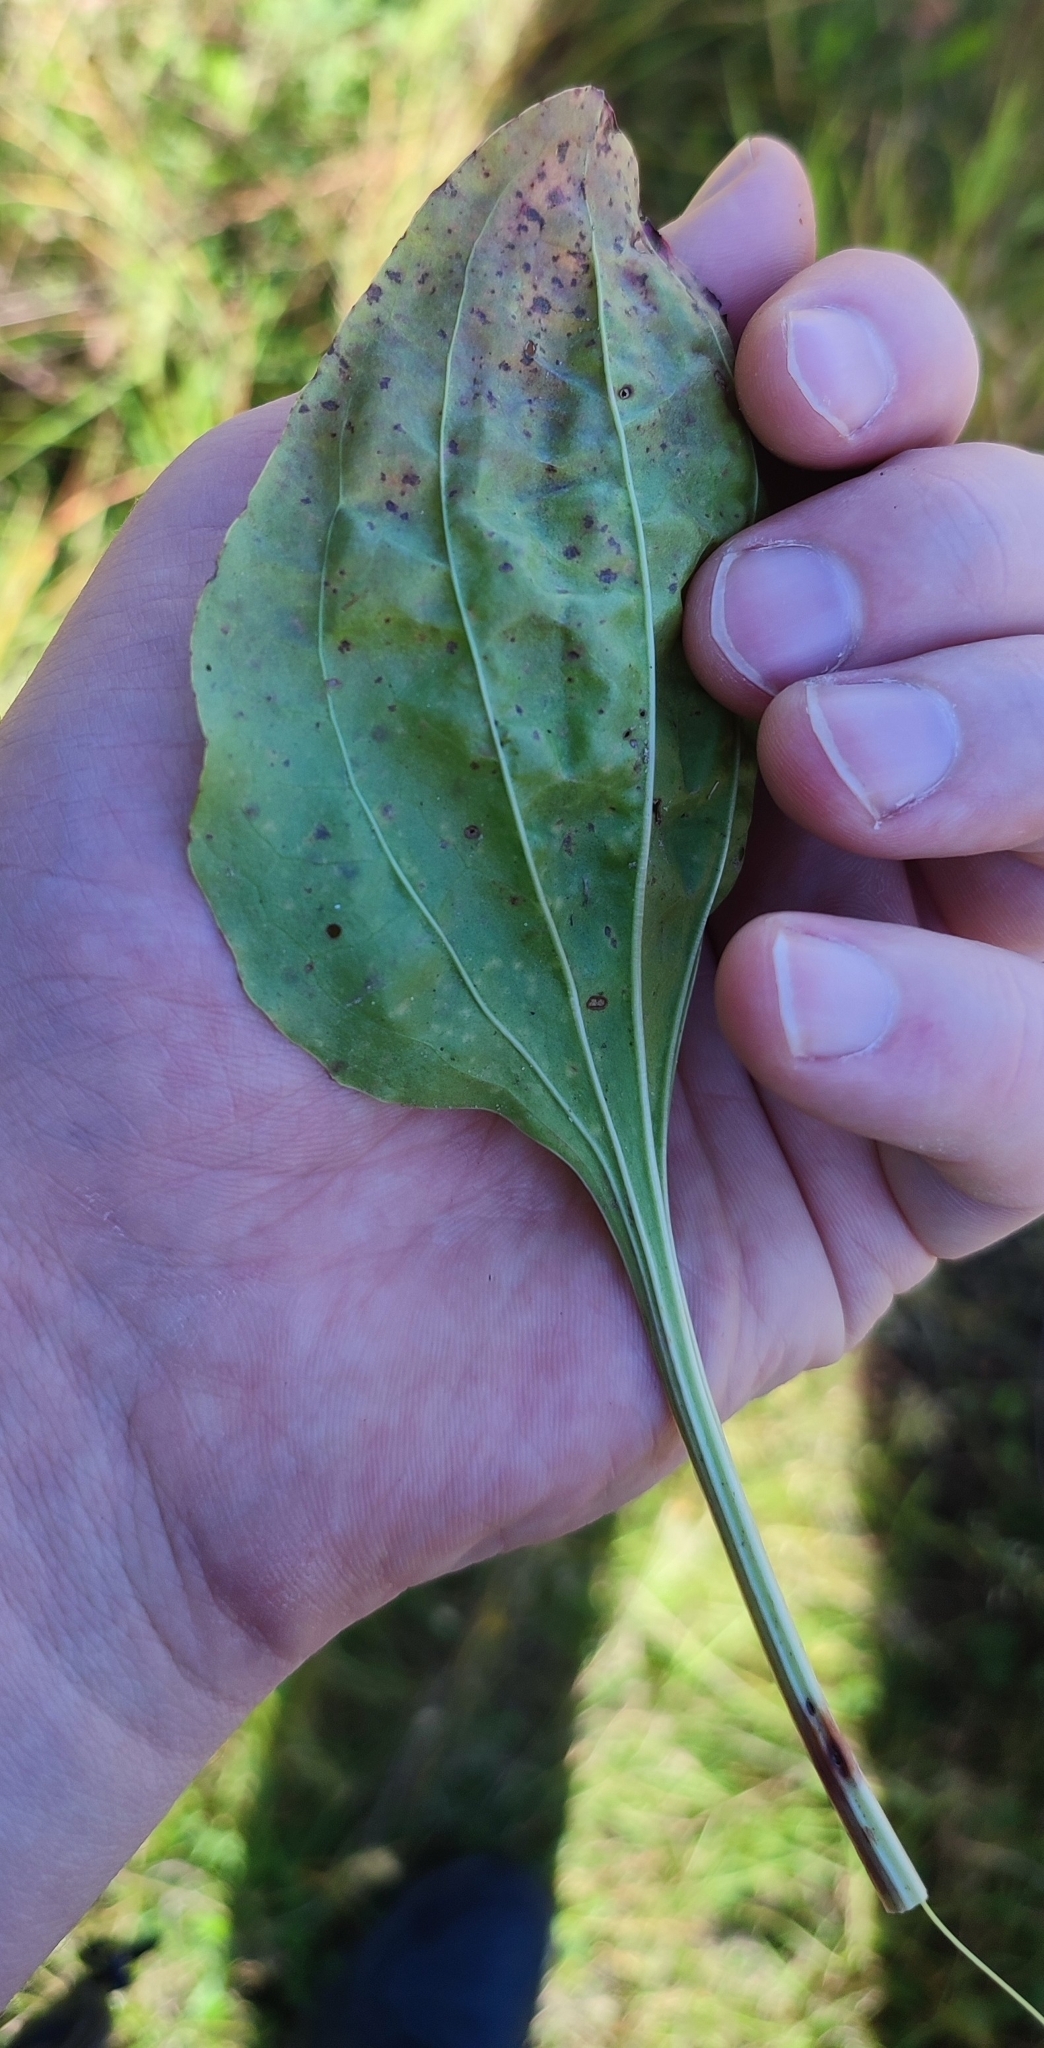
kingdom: Plantae
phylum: Tracheophyta
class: Magnoliopsida
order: Lamiales
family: Plantaginaceae
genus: Plantago
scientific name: Plantago major
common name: Common plantain
